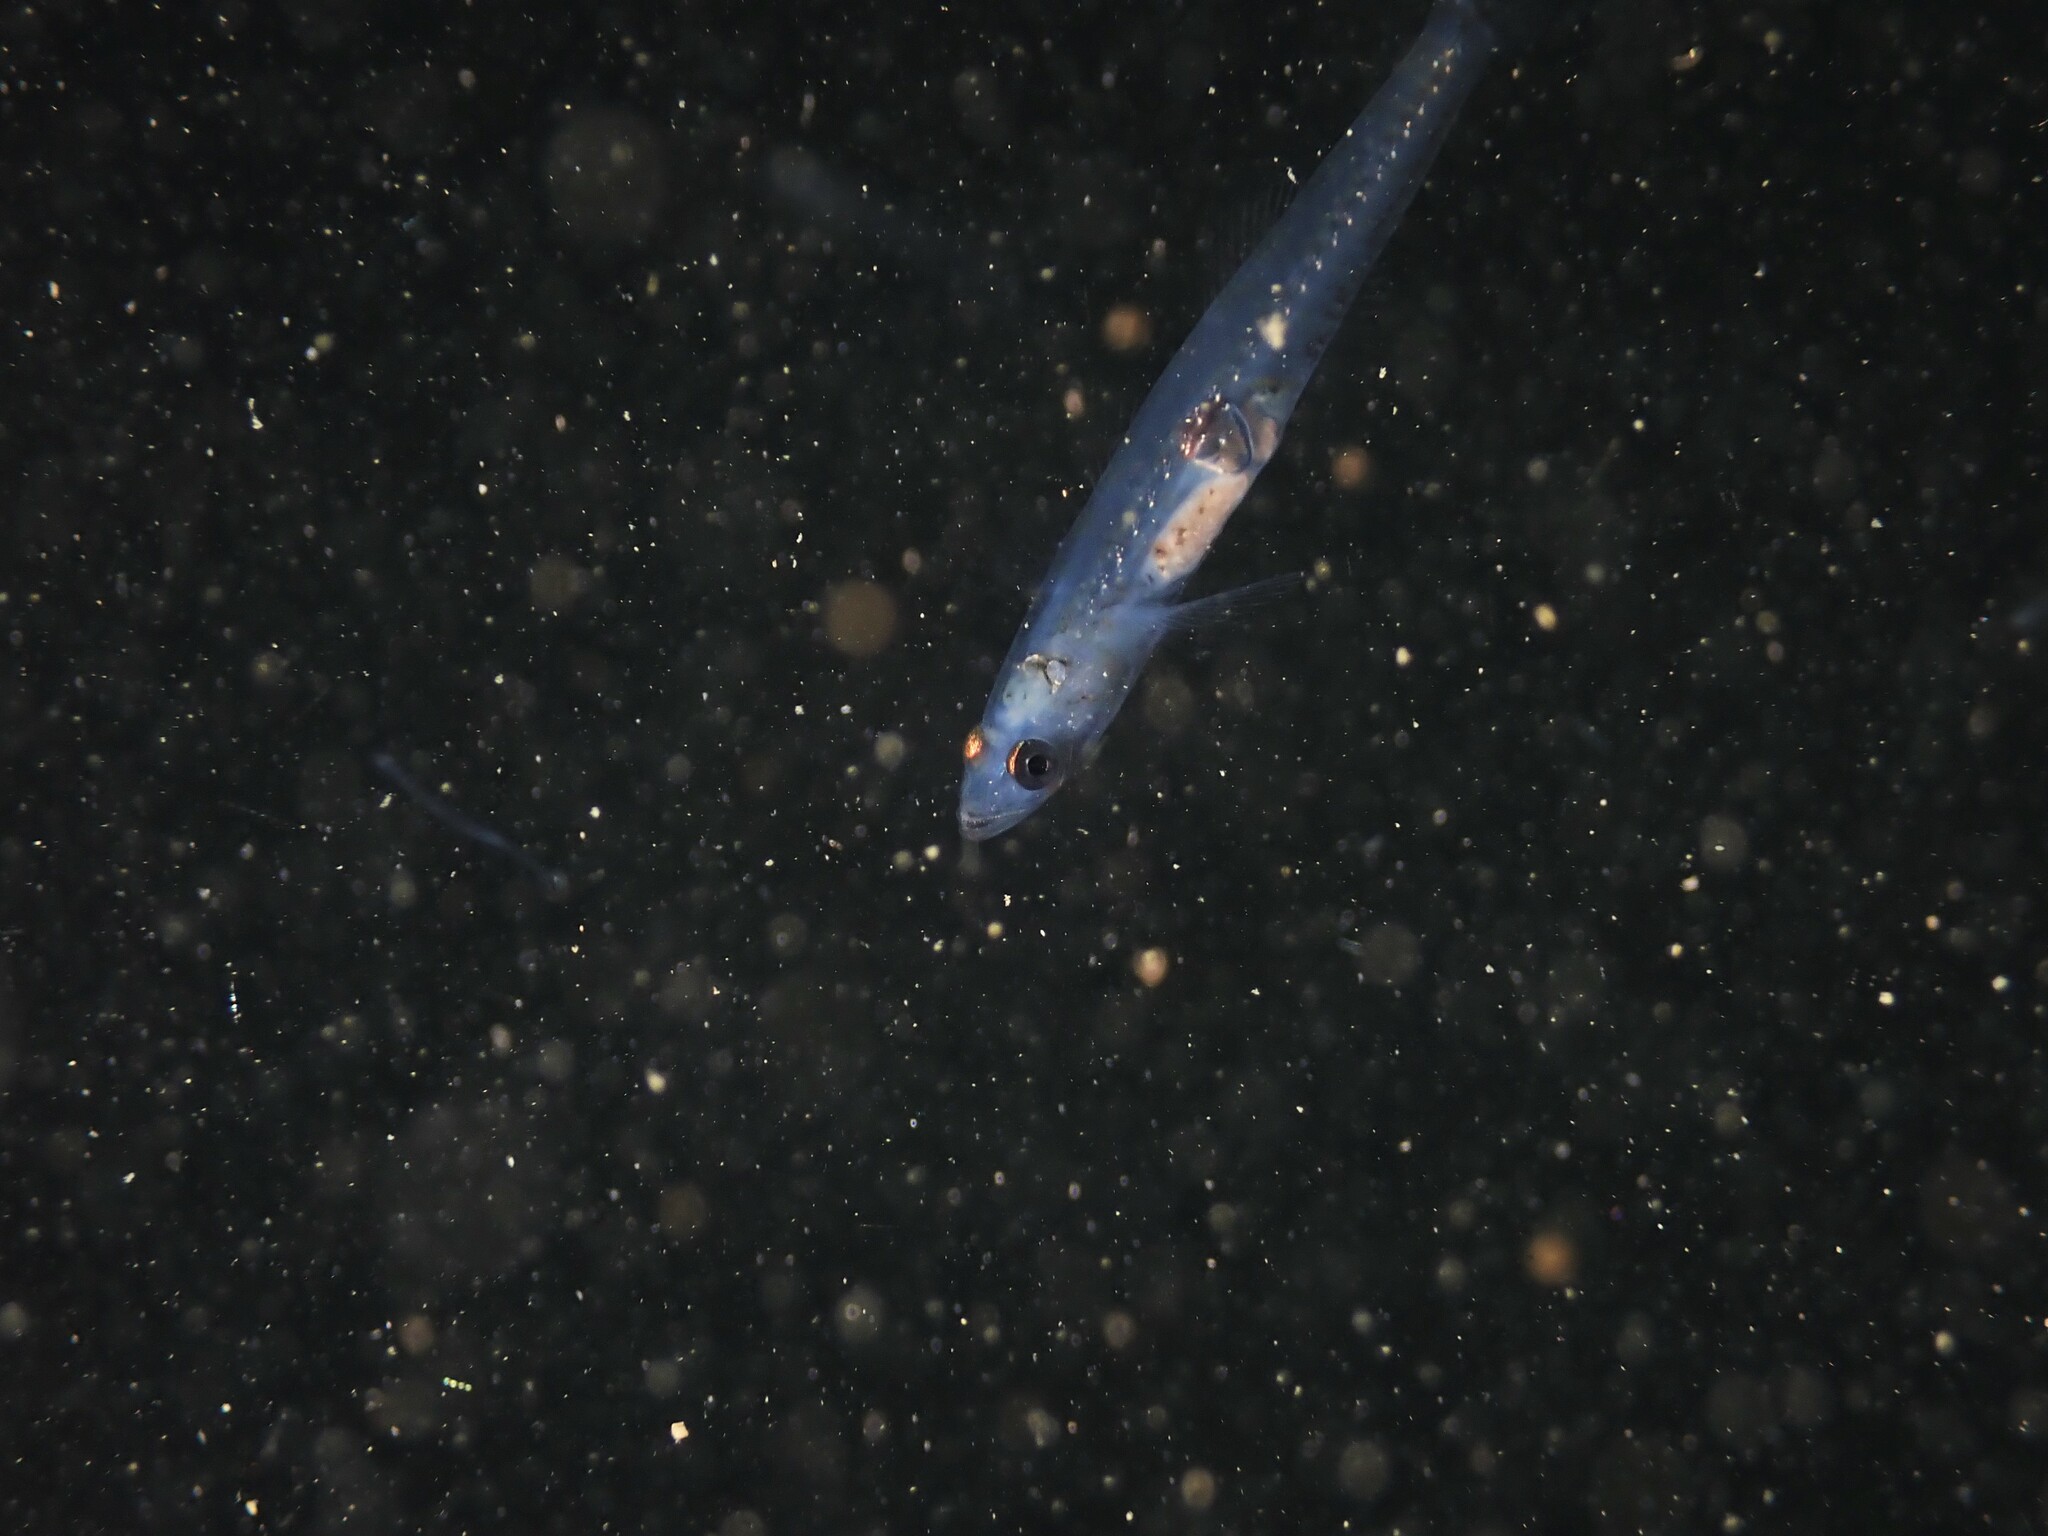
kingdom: Animalia
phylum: Chordata
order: Perciformes
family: Thalasseleotrididae
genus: Grahamichthys
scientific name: Grahamichthys radiata
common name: Graham's gudgeon
